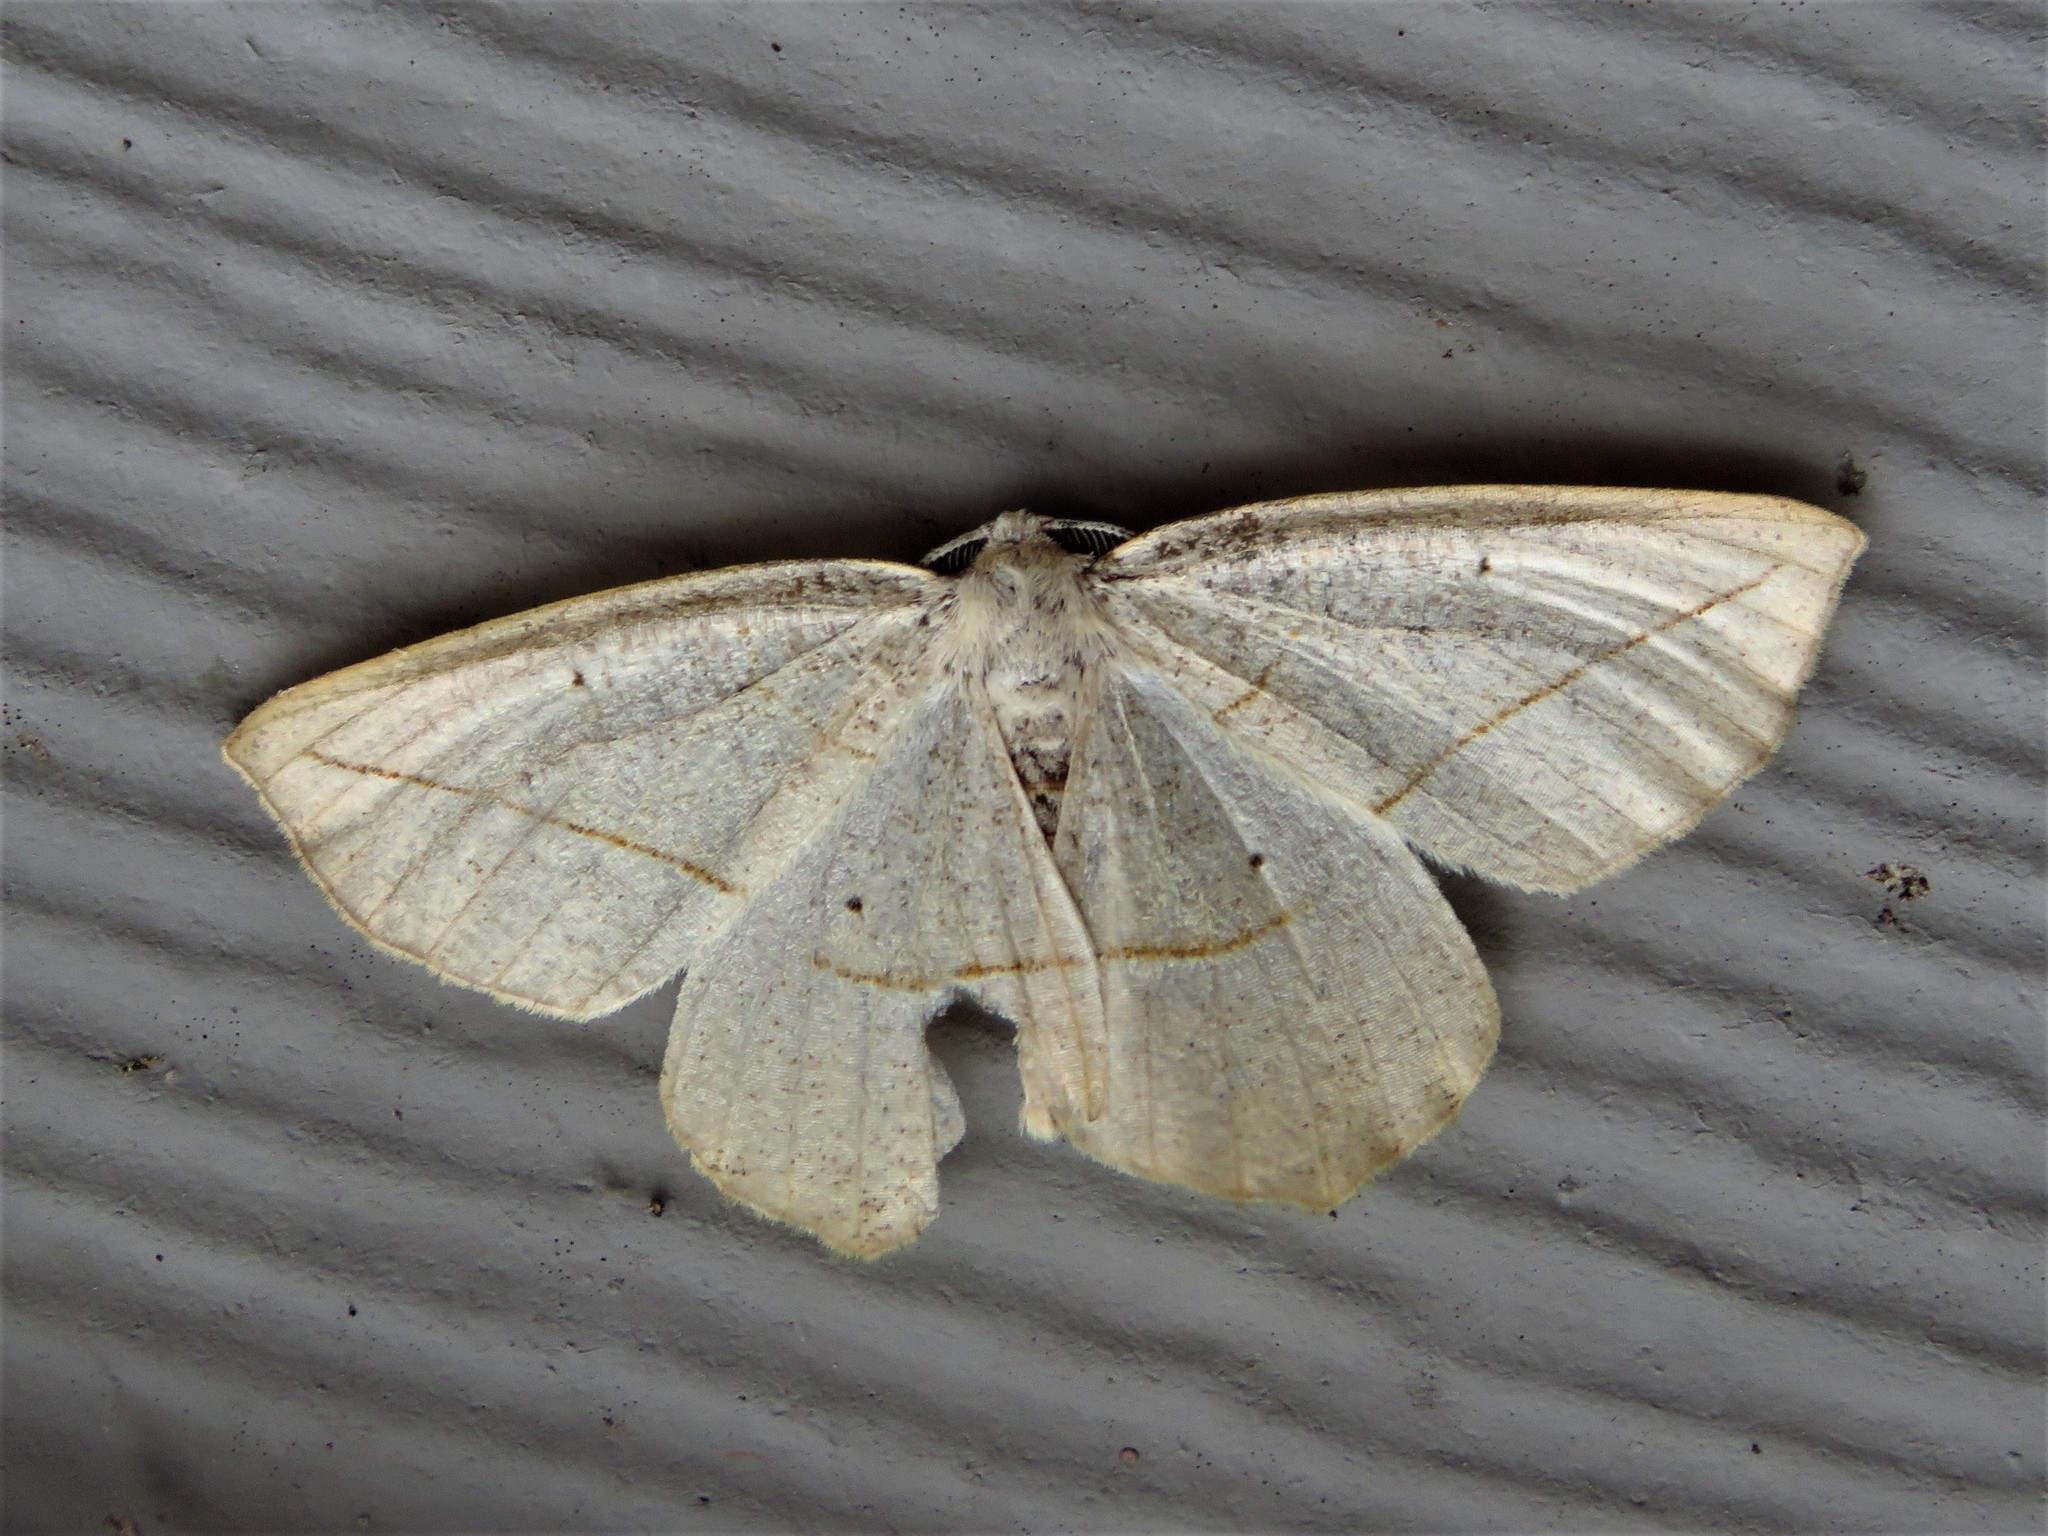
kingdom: Animalia
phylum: Arthropoda
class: Insecta
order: Lepidoptera
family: Geometridae
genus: Eusarca
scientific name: Eusarca confusaria
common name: Confused eusarca
